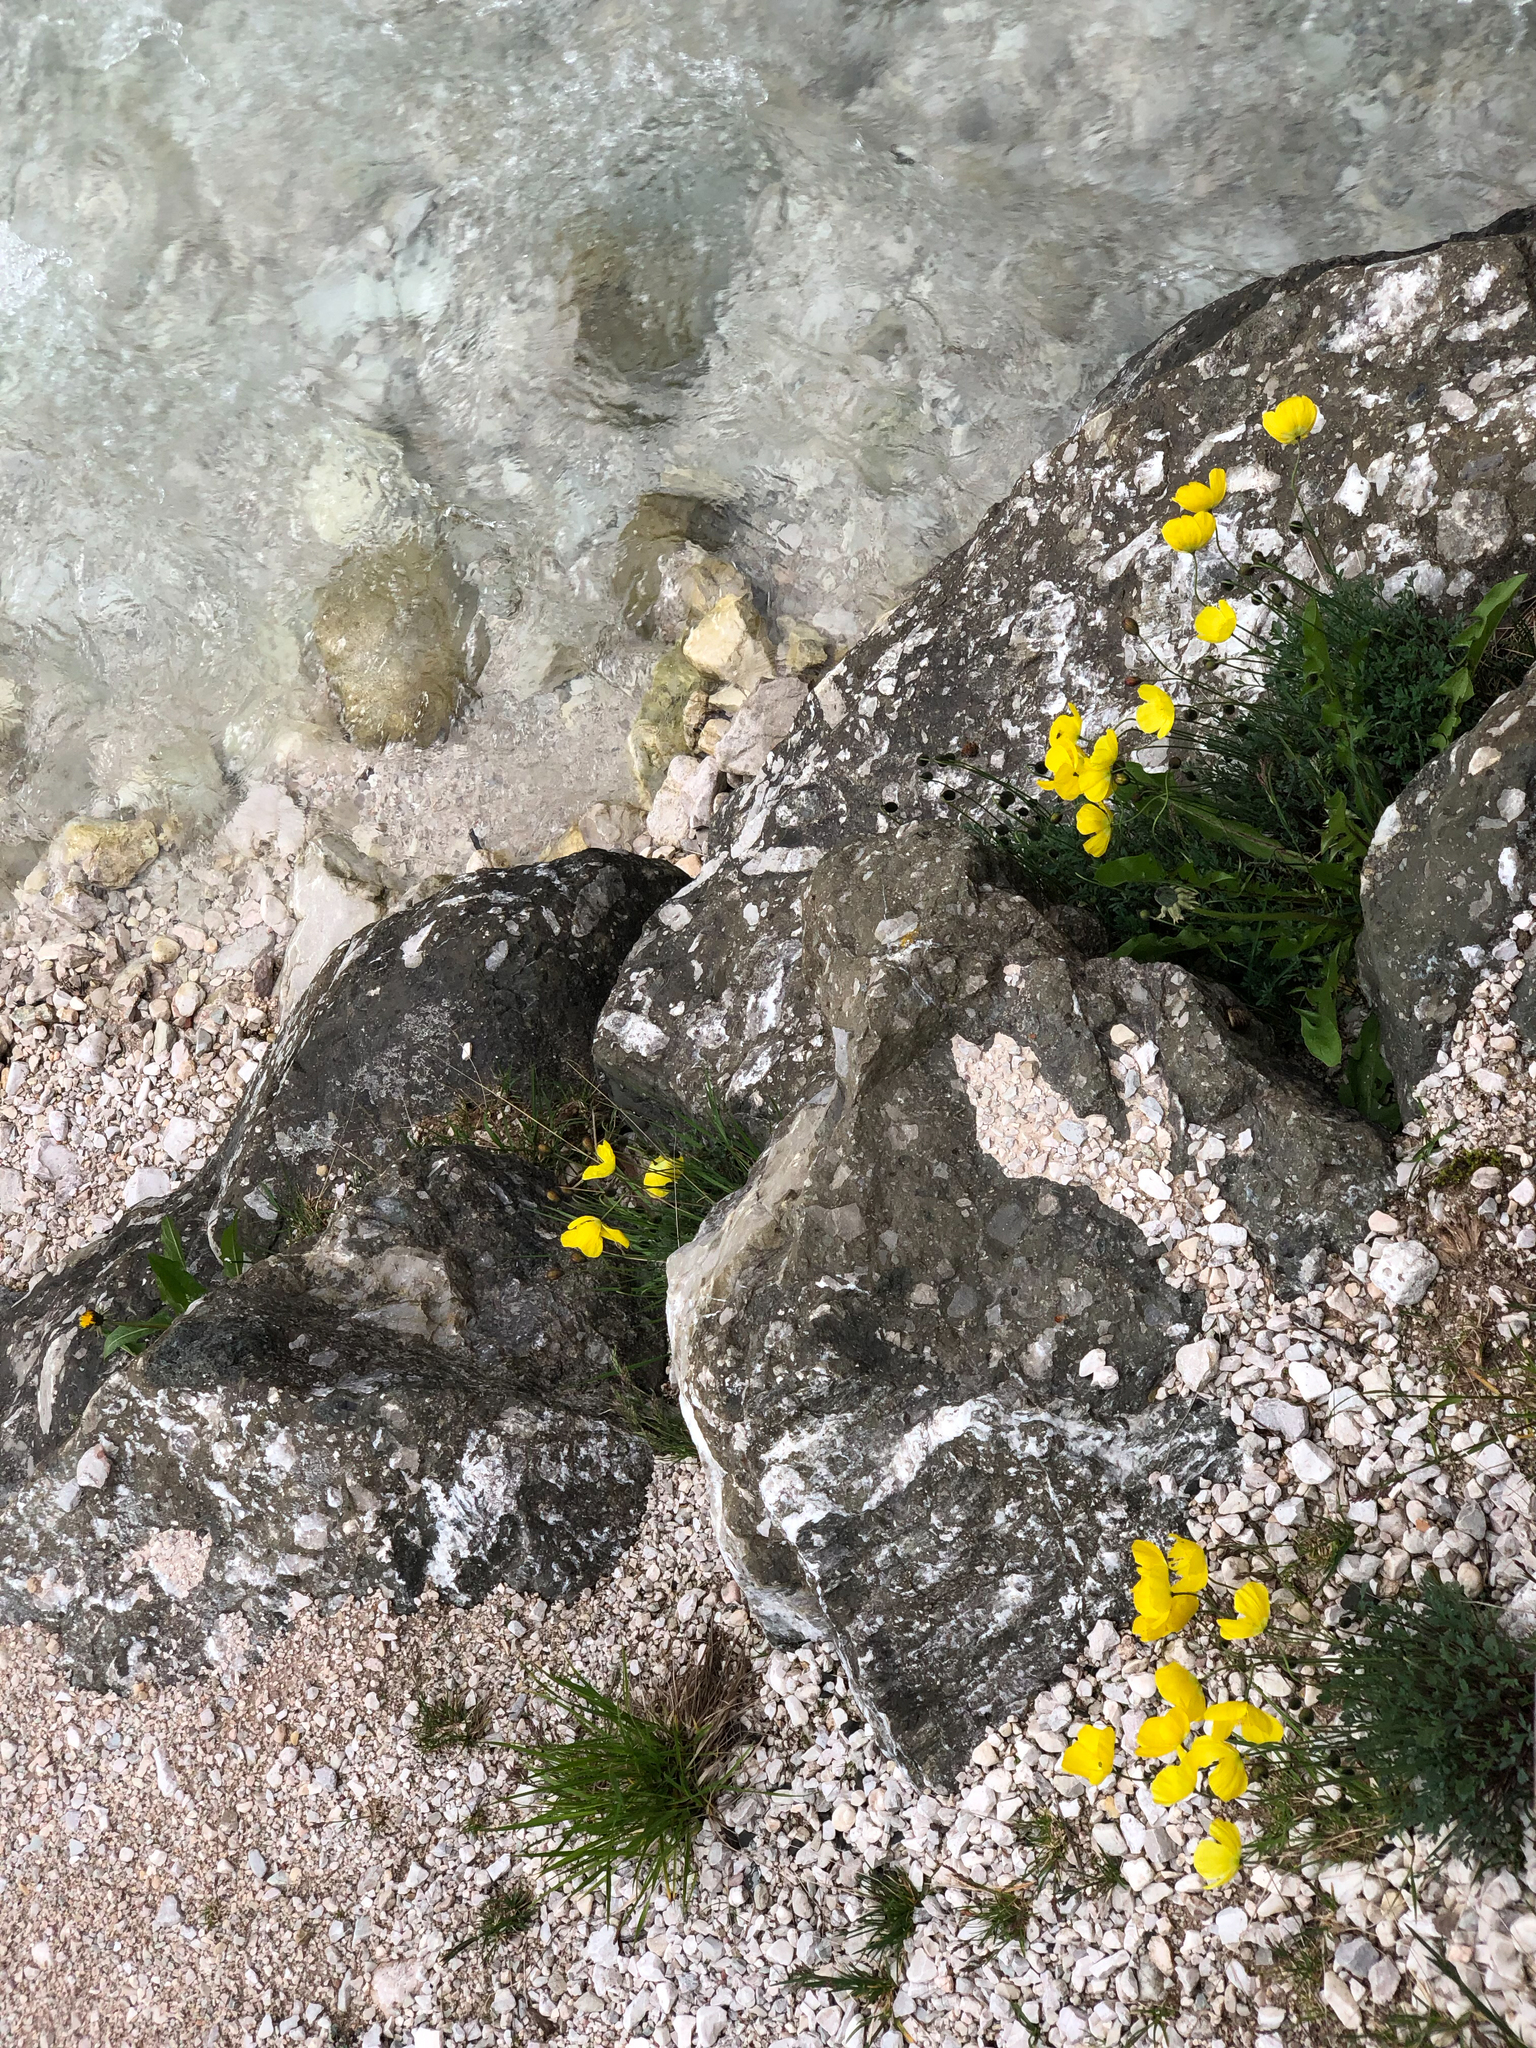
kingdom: Plantae
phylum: Tracheophyta
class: Magnoliopsida
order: Ranunculales
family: Papaveraceae
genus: Papaver
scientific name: Papaver alpinum
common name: Austrian poppy
